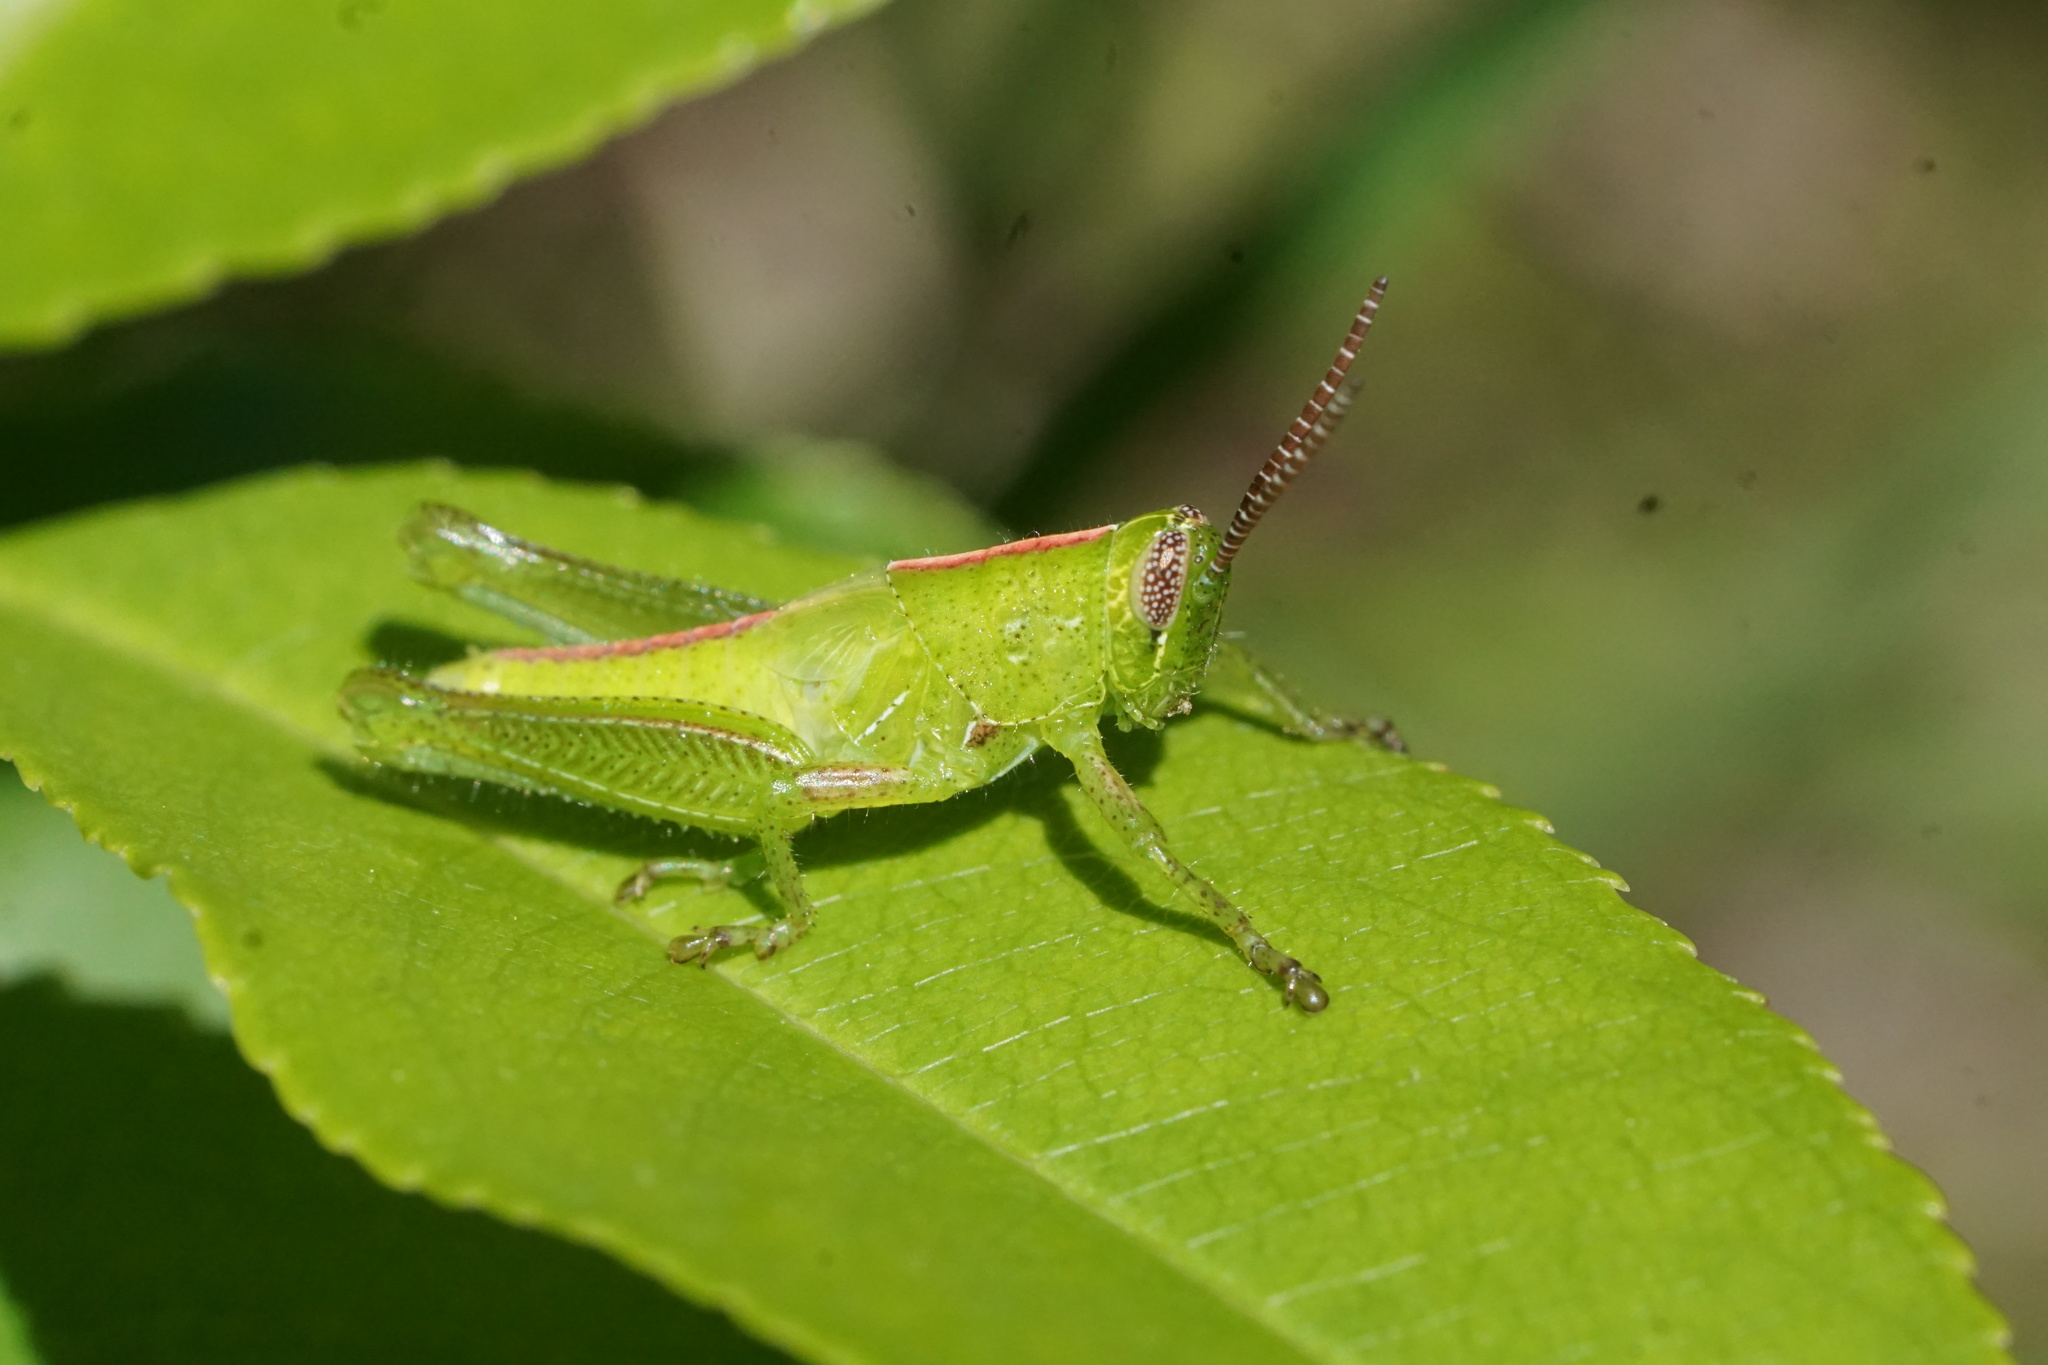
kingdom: Animalia
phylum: Arthropoda
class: Insecta
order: Orthoptera
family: Acrididae
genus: Hesperotettix
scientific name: Hesperotettix viridis
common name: Meadow purple-striped grasshopper
